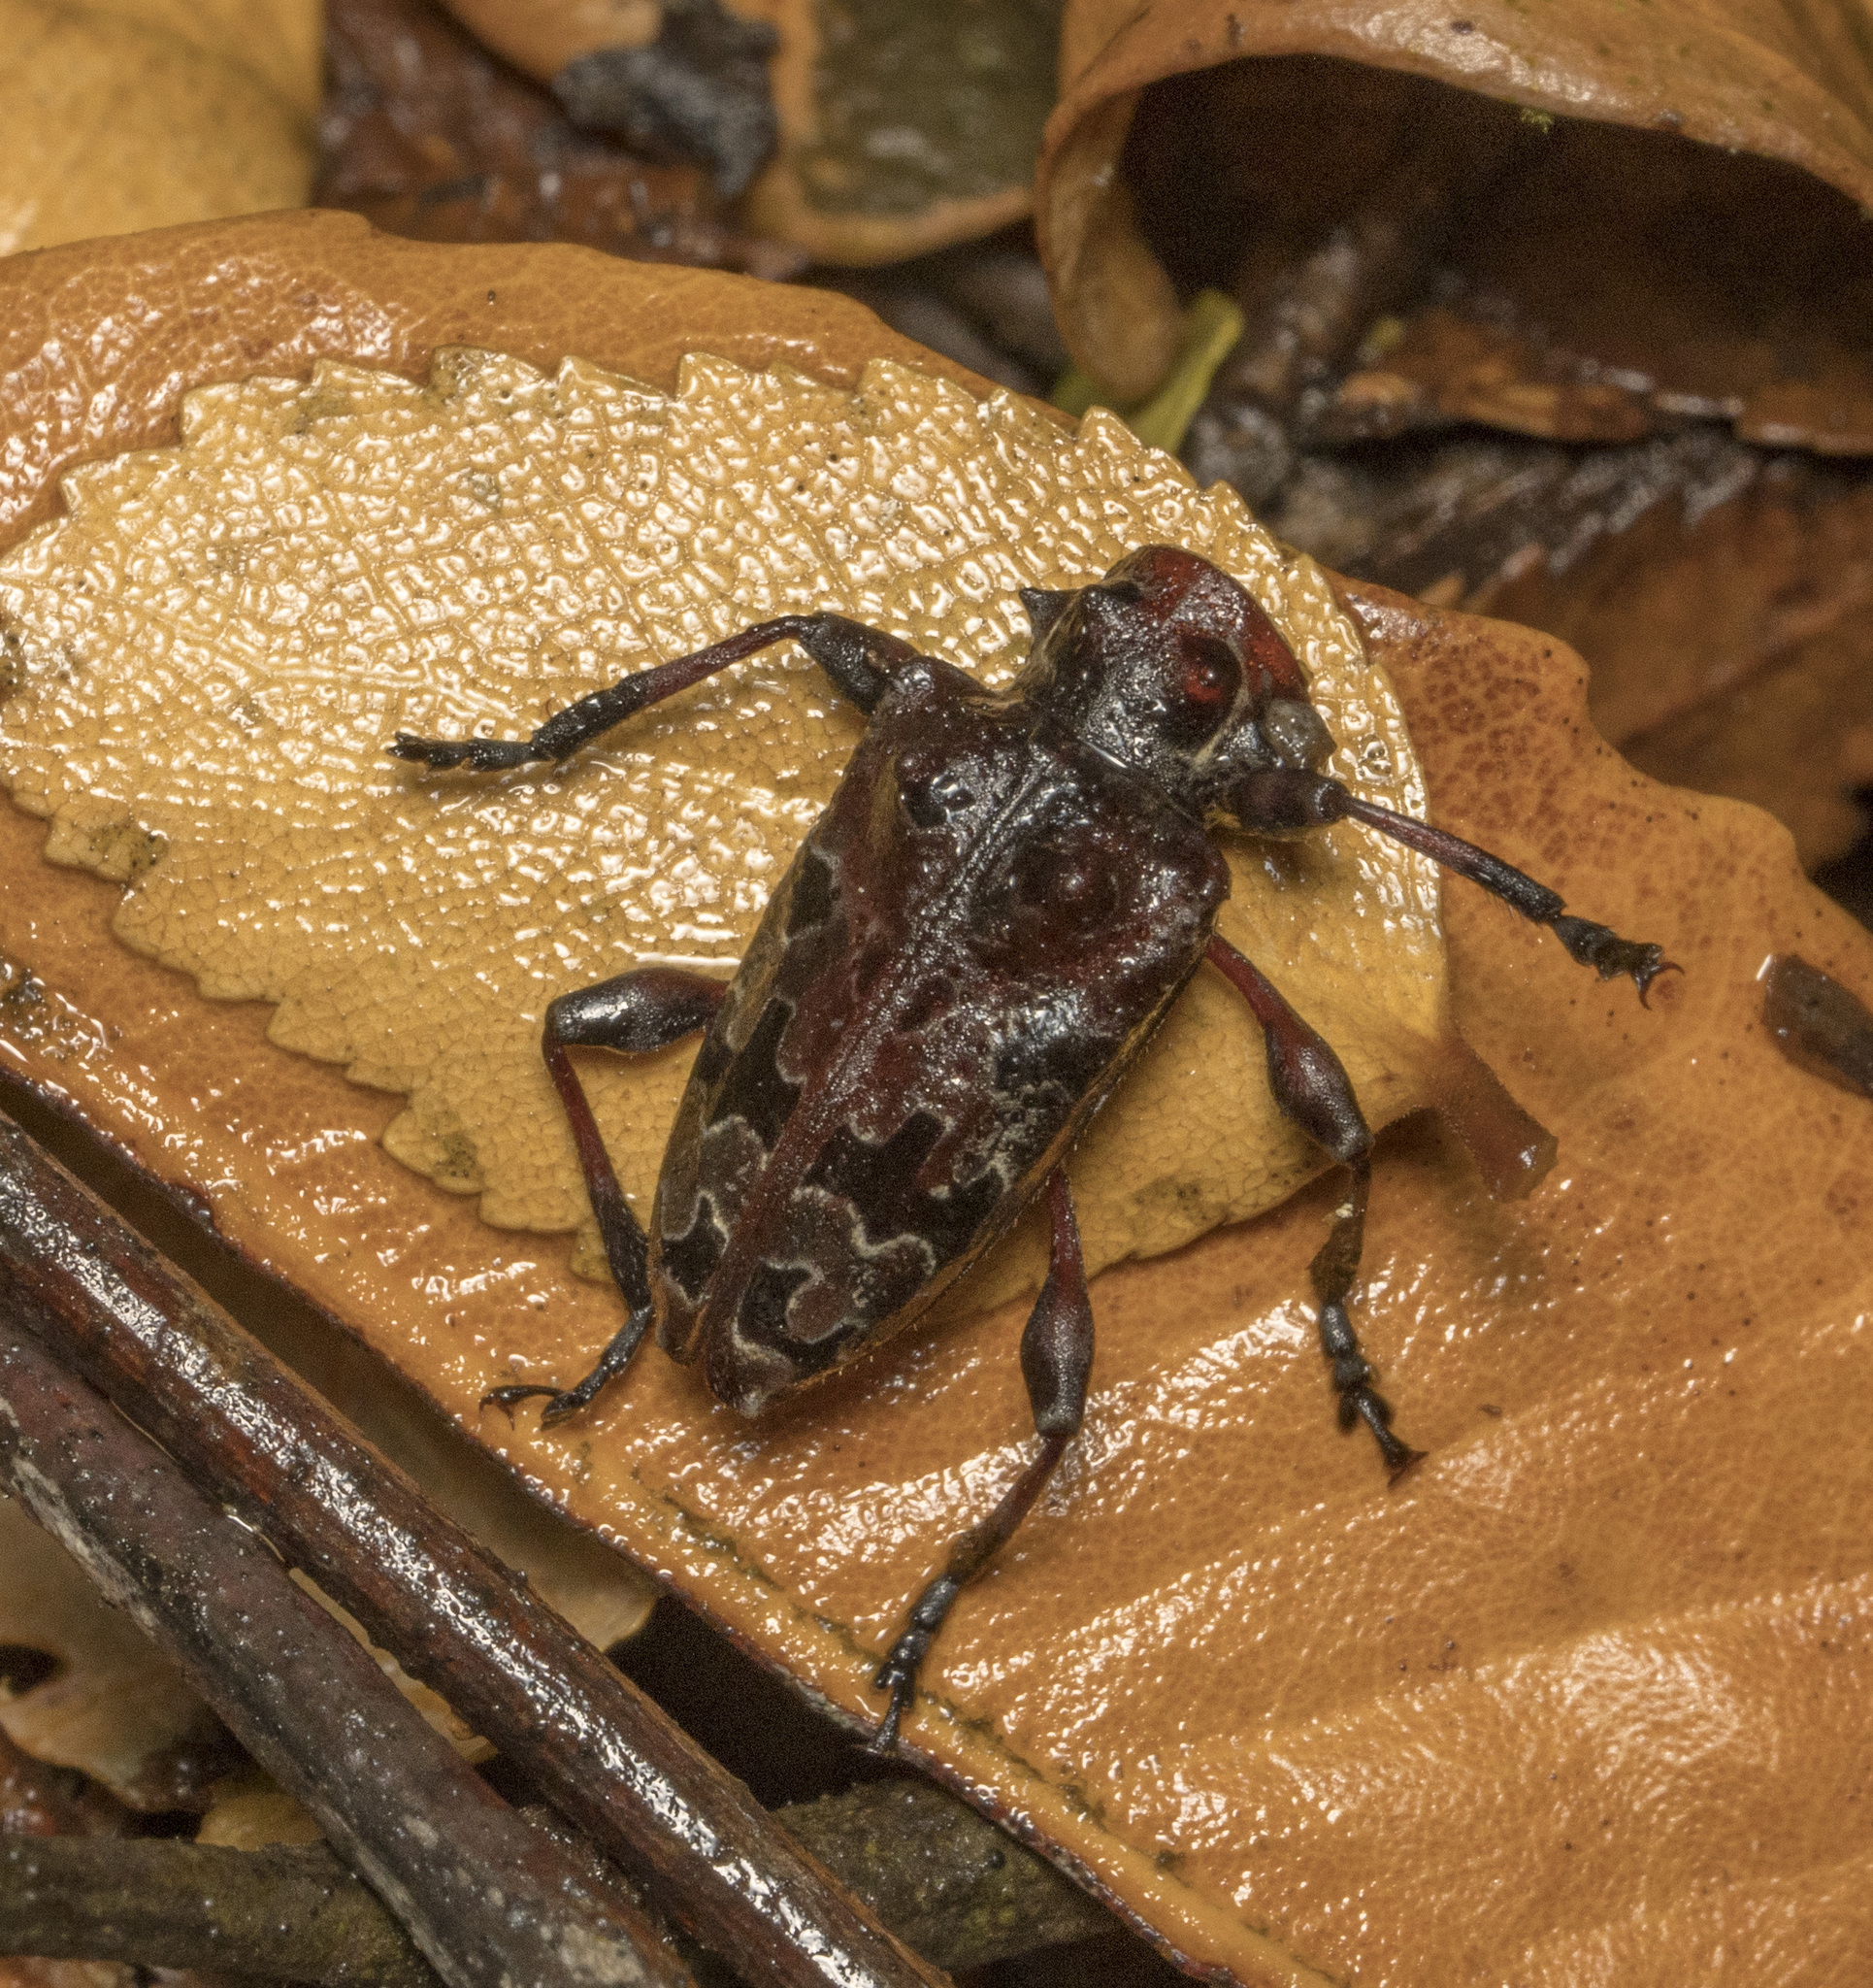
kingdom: Animalia
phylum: Arthropoda
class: Insecta
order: Coleoptera
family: Cerambycidae
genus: Azygocera
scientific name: Azygocera picturata
